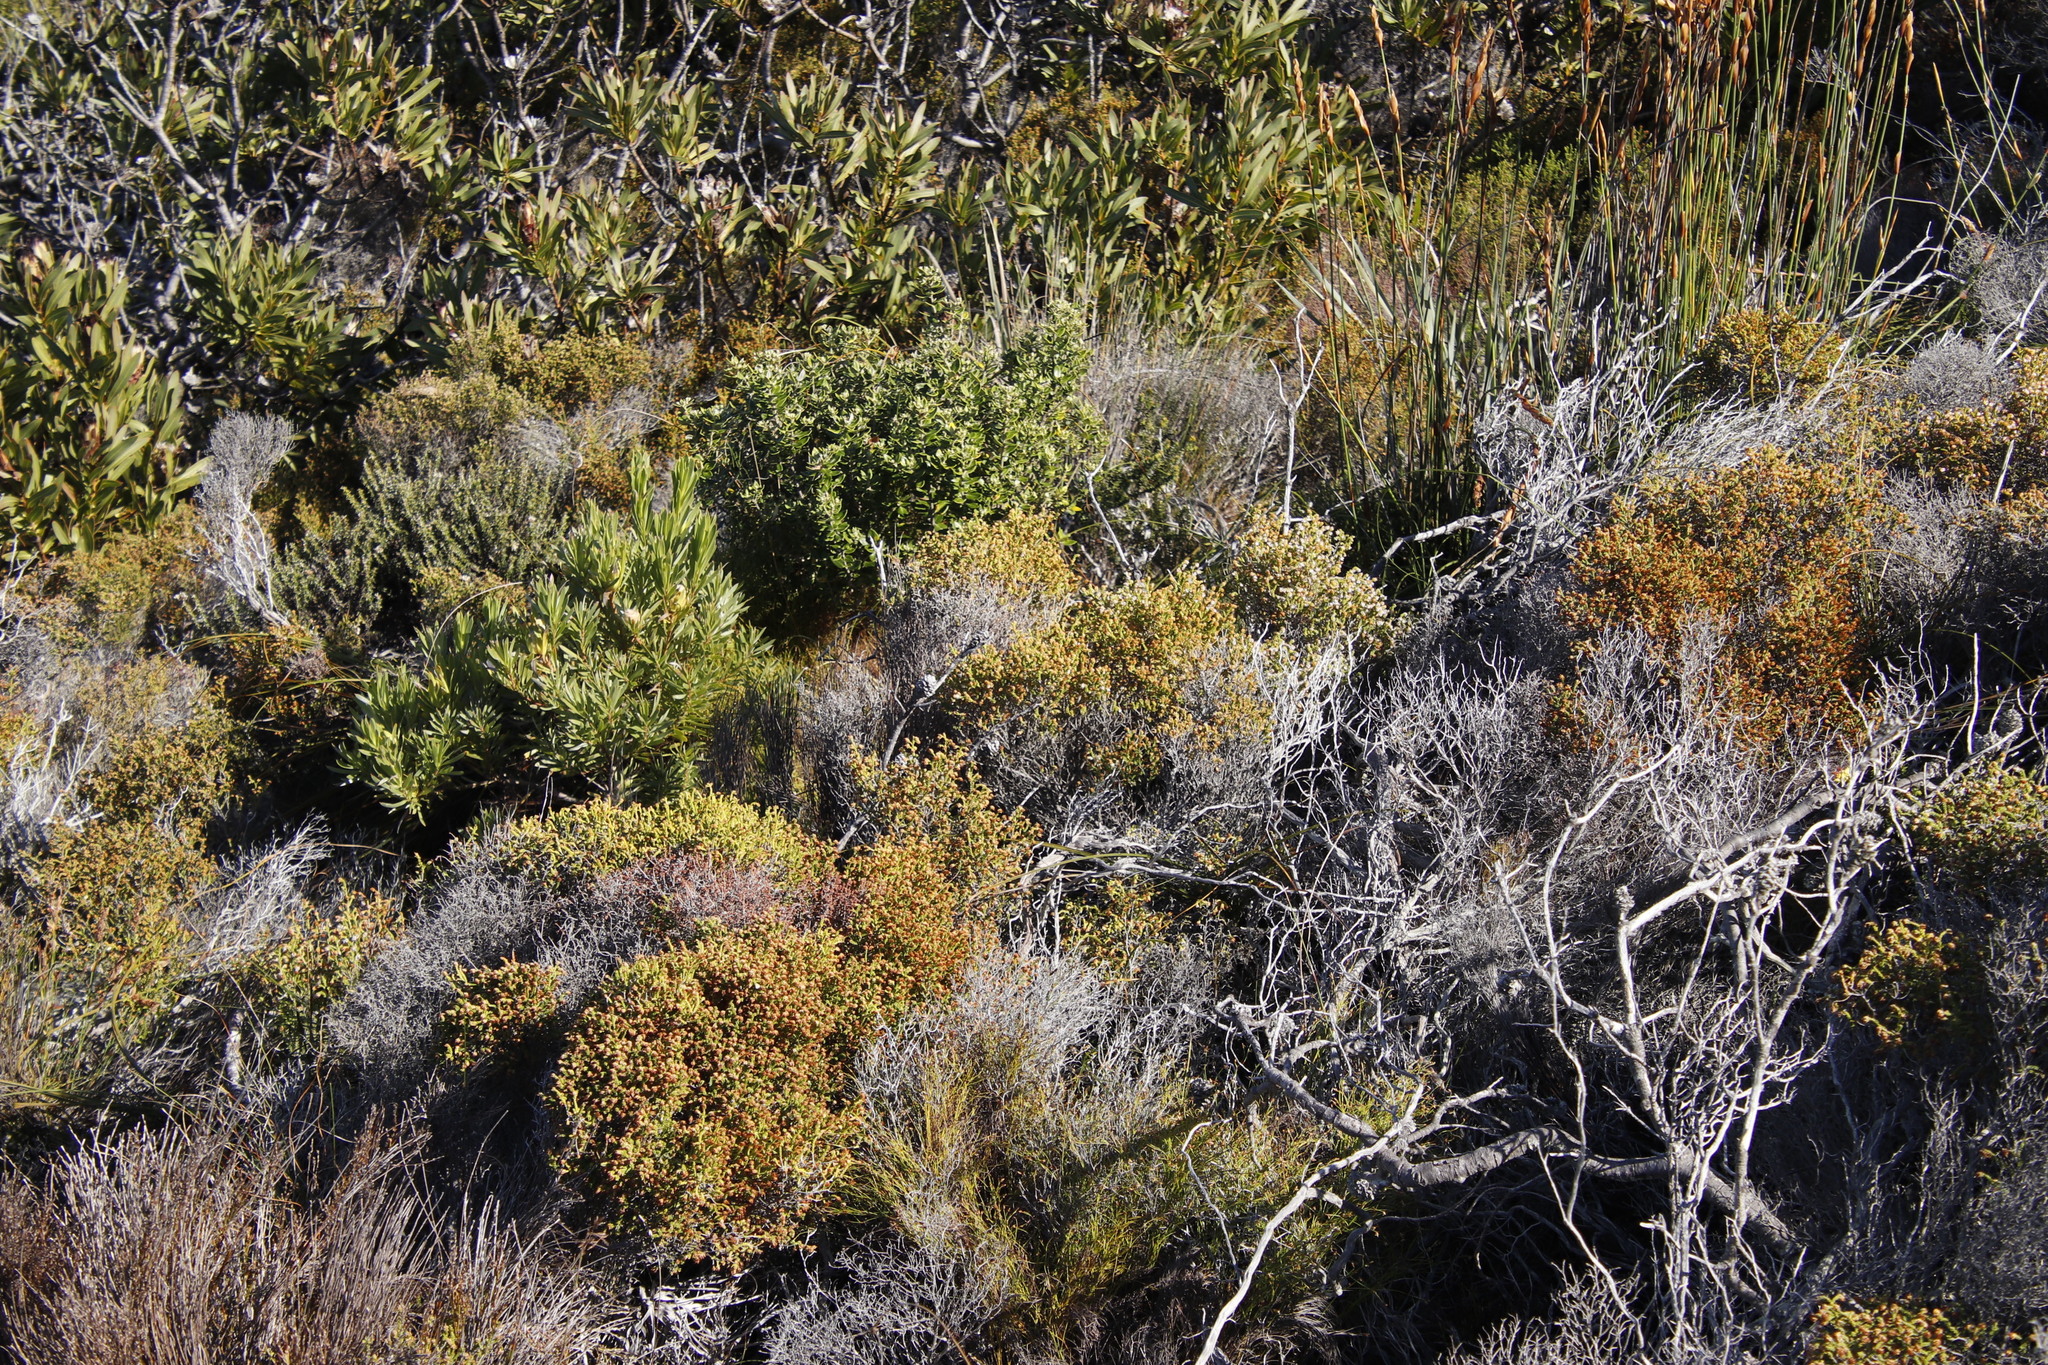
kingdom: Plantae
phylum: Tracheophyta
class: Magnoliopsida
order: Ericales
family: Ericaceae
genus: Erica
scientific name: Erica labialis
